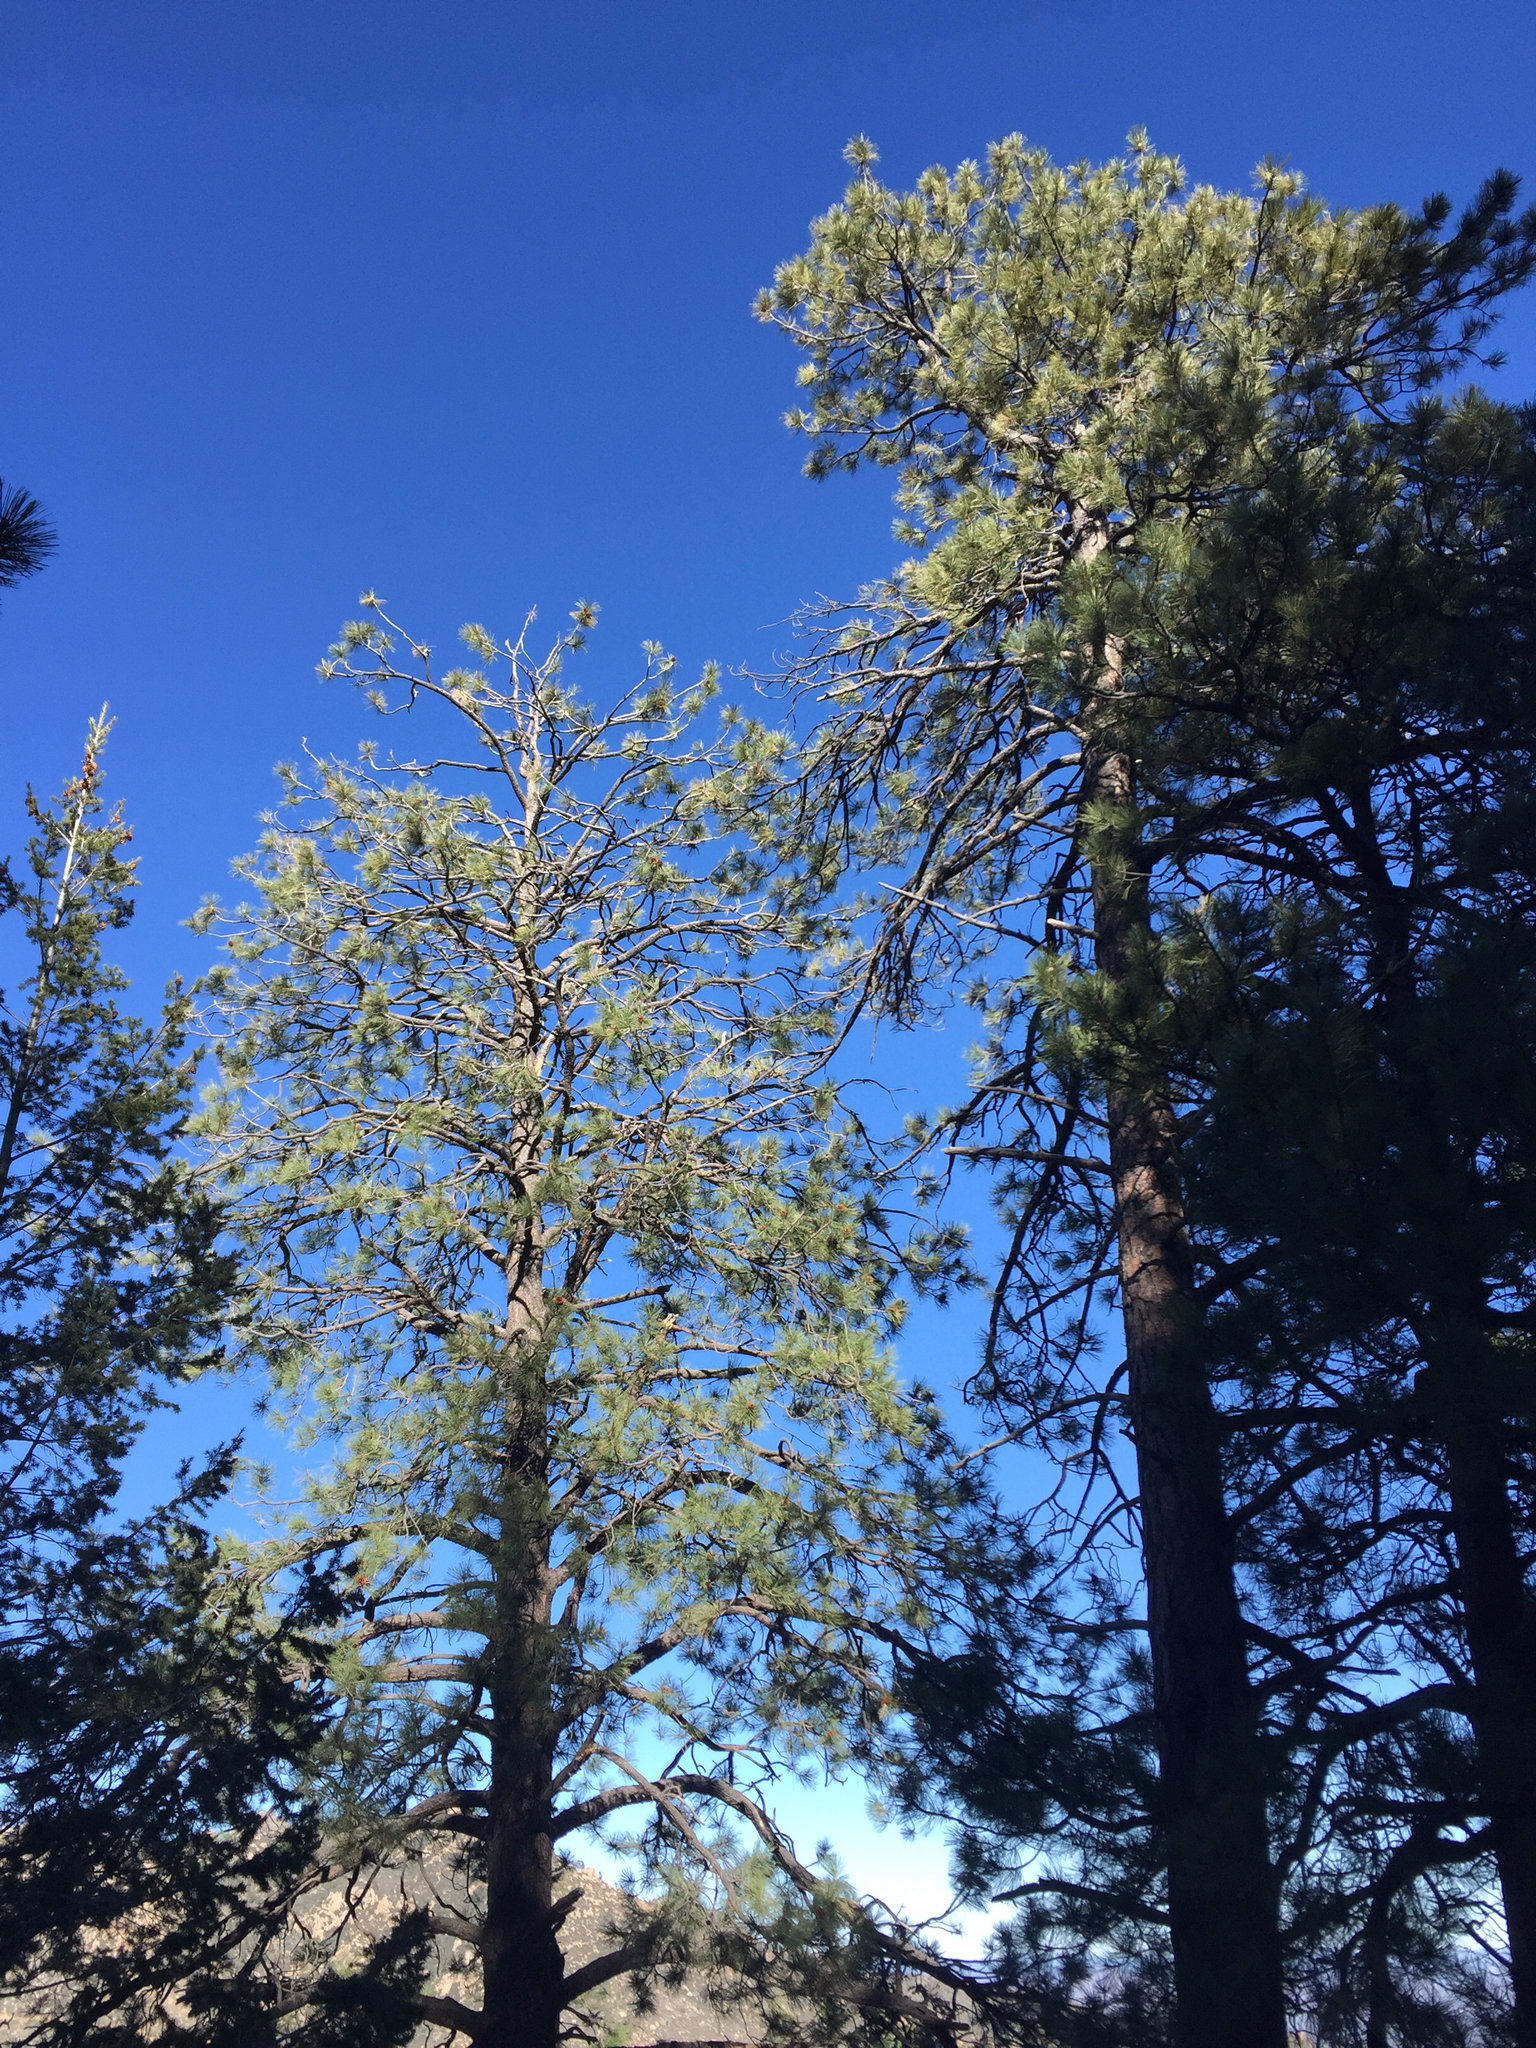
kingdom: Plantae
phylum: Tracheophyta
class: Pinopsida
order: Pinales
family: Pinaceae
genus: Pinus
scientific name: Pinus ponderosa
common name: Western yellow-pine
